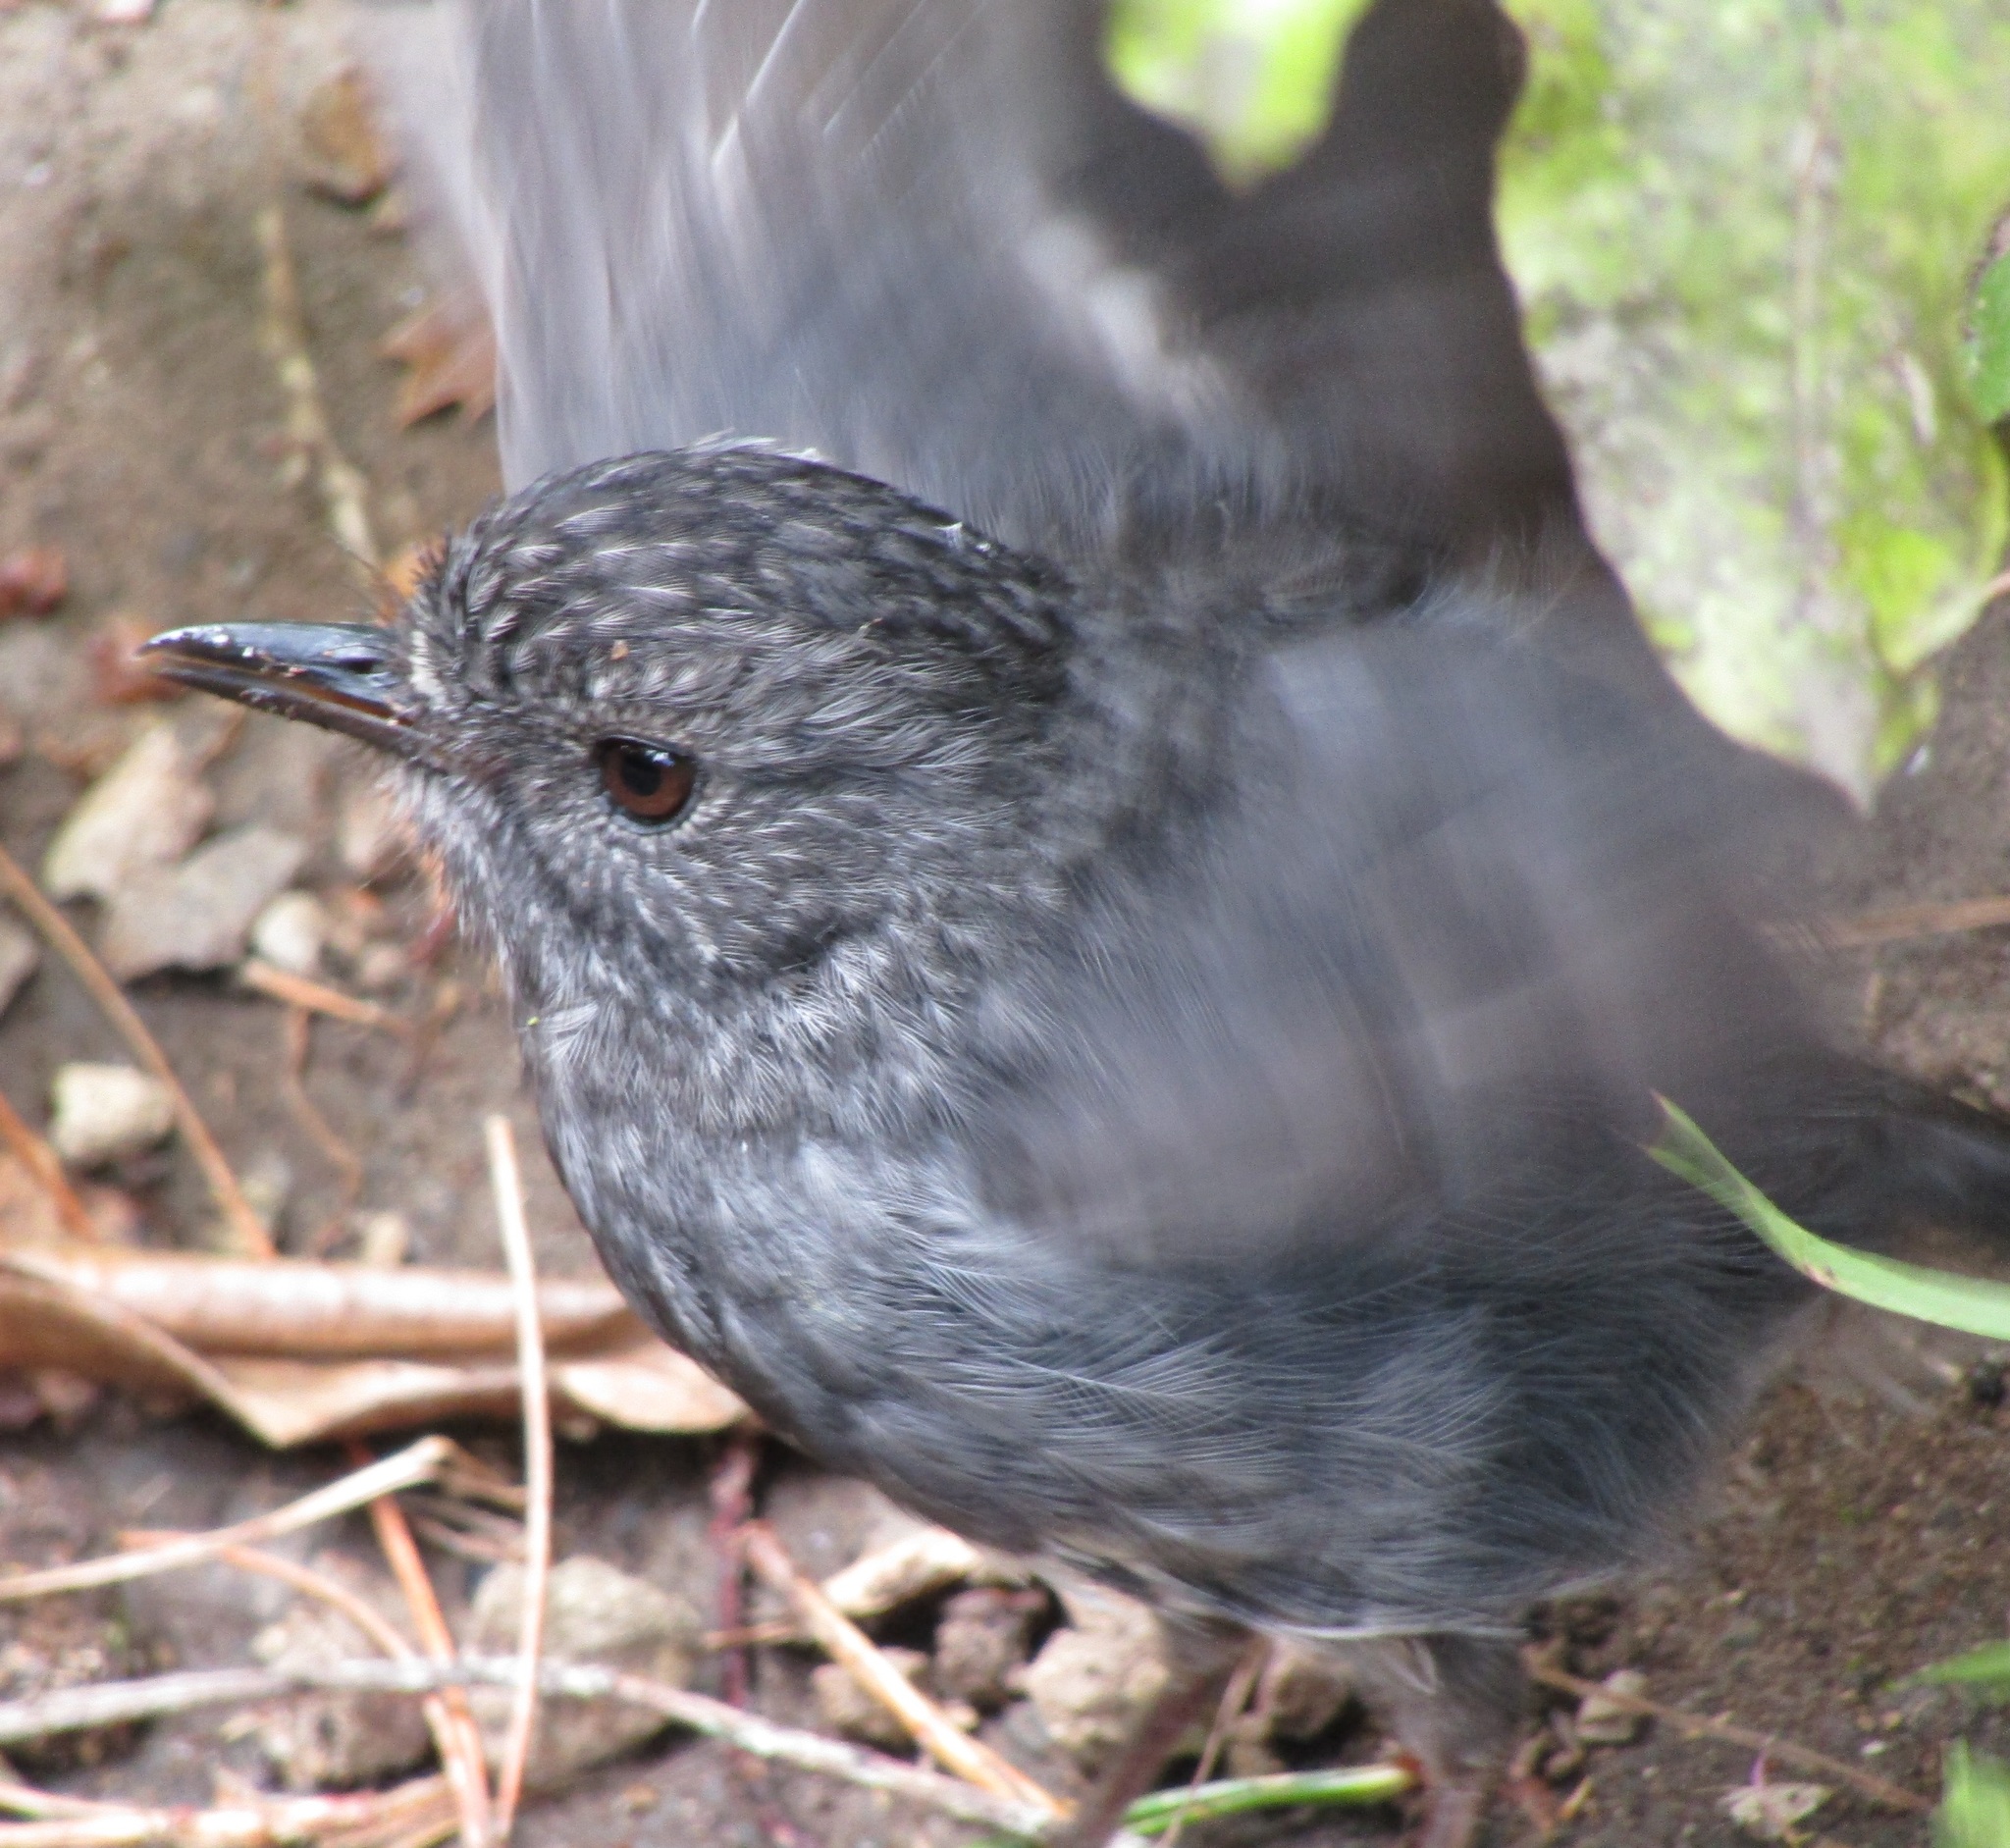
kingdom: Animalia
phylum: Chordata
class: Aves
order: Passeriformes
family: Petroicidae
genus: Petroica
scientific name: Petroica australis
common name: New zealand robin
